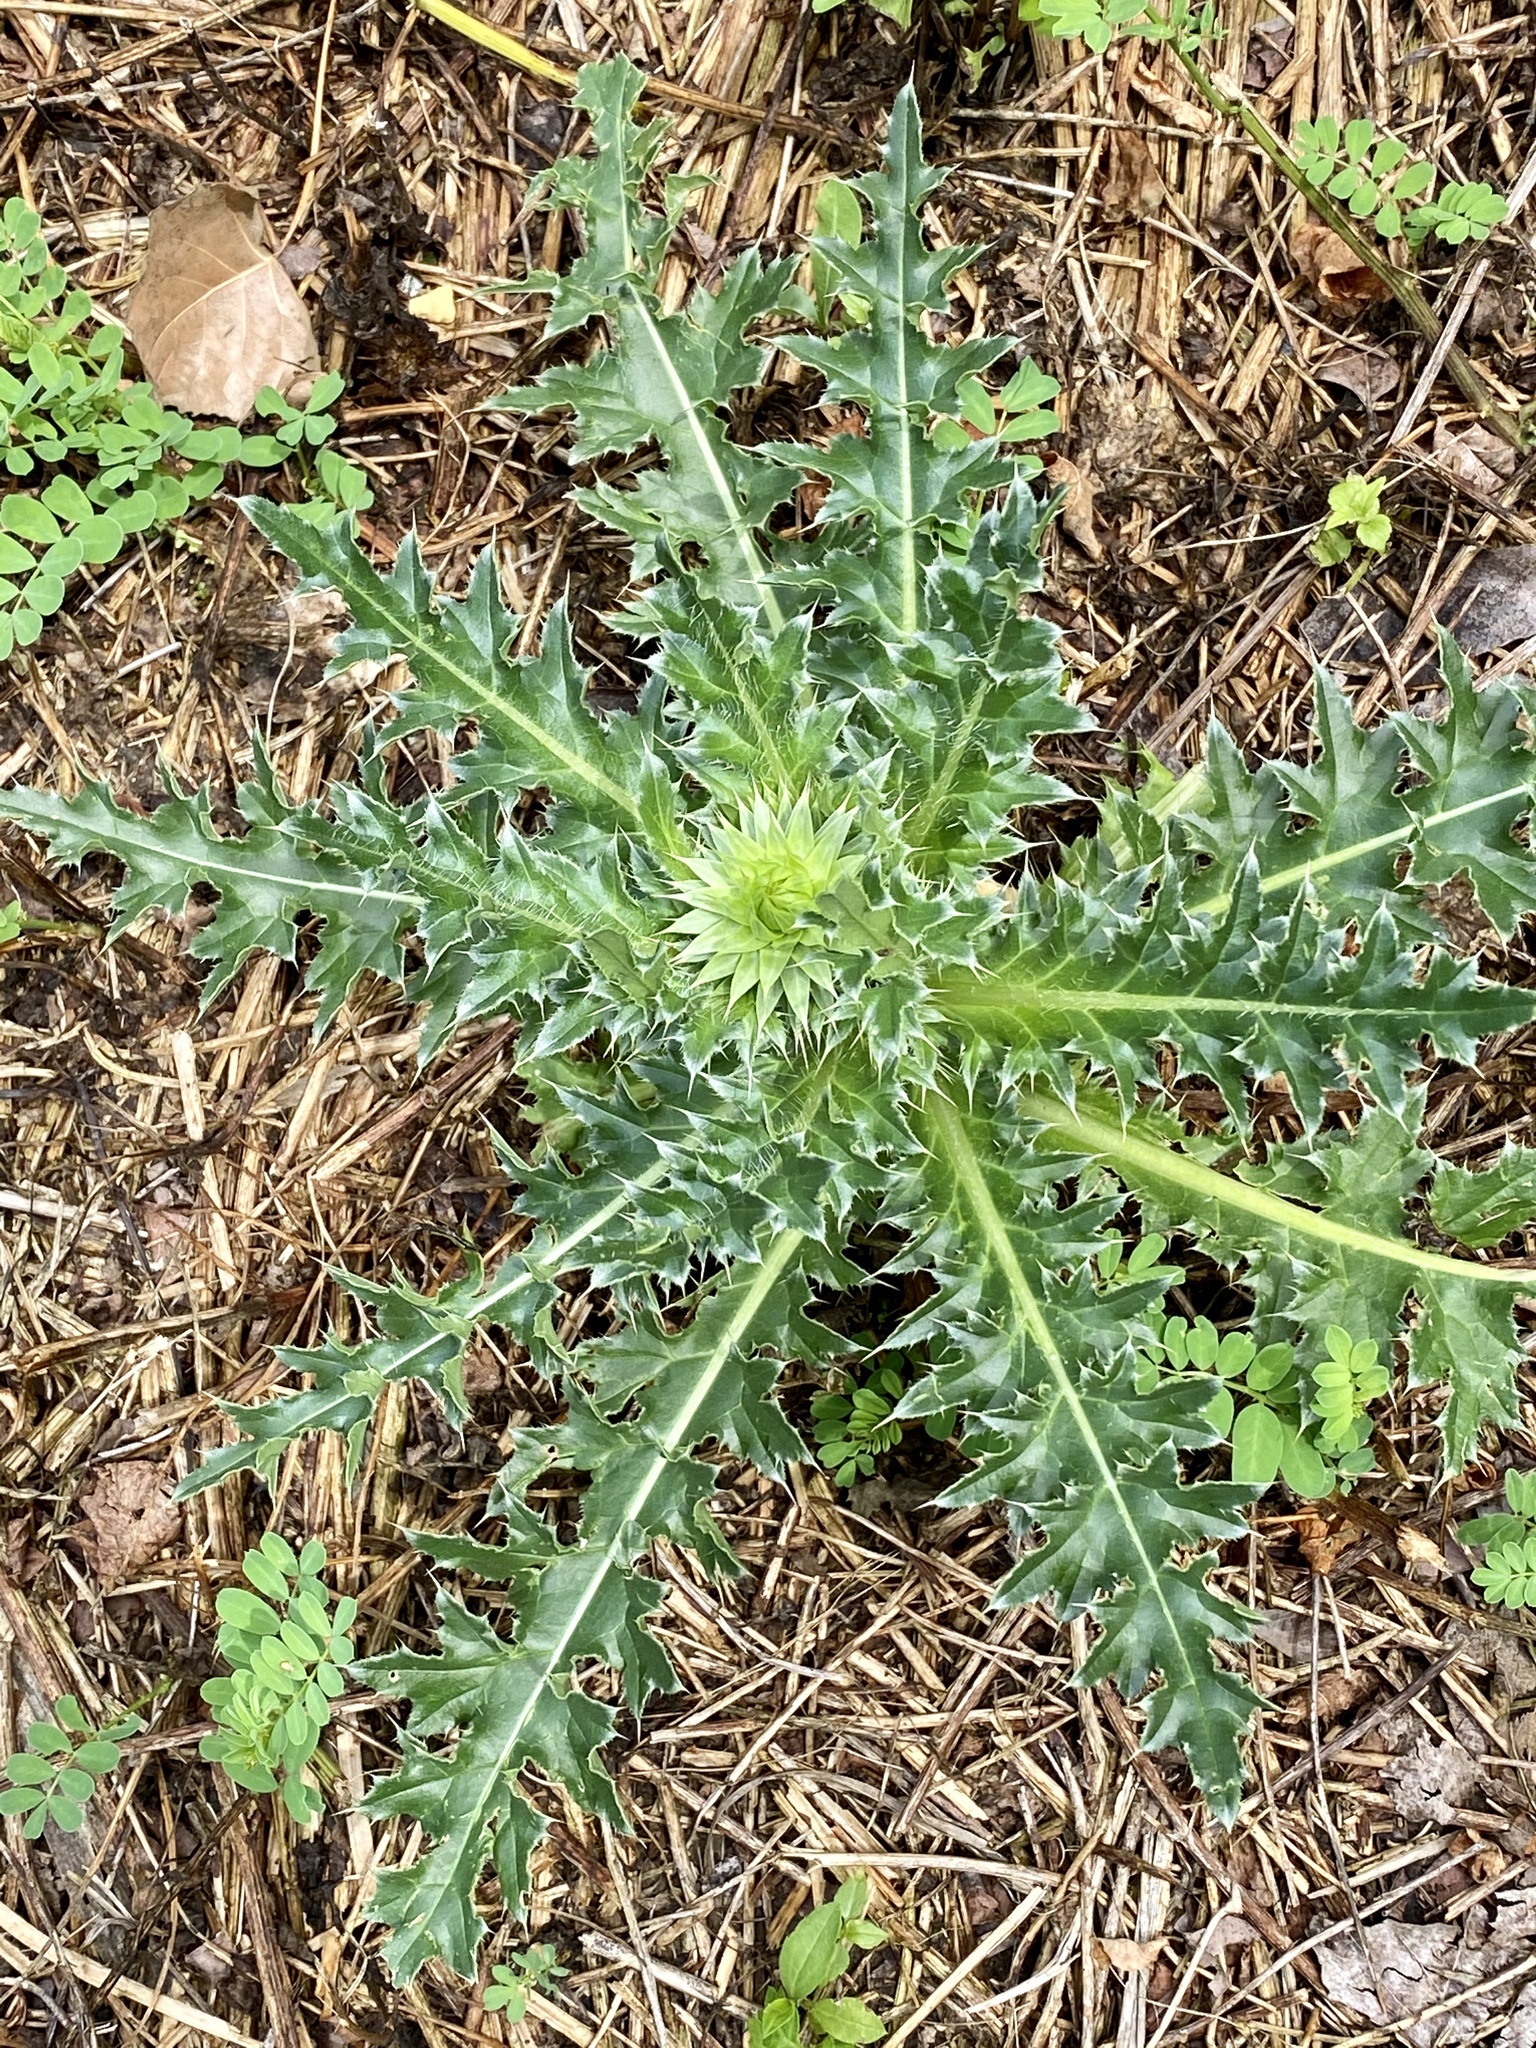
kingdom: Plantae
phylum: Tracheophyta
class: Magnoliopsida
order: Asterales
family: Asteraceae
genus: Carduus
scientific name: Carduus nutans
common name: Musk thistle
